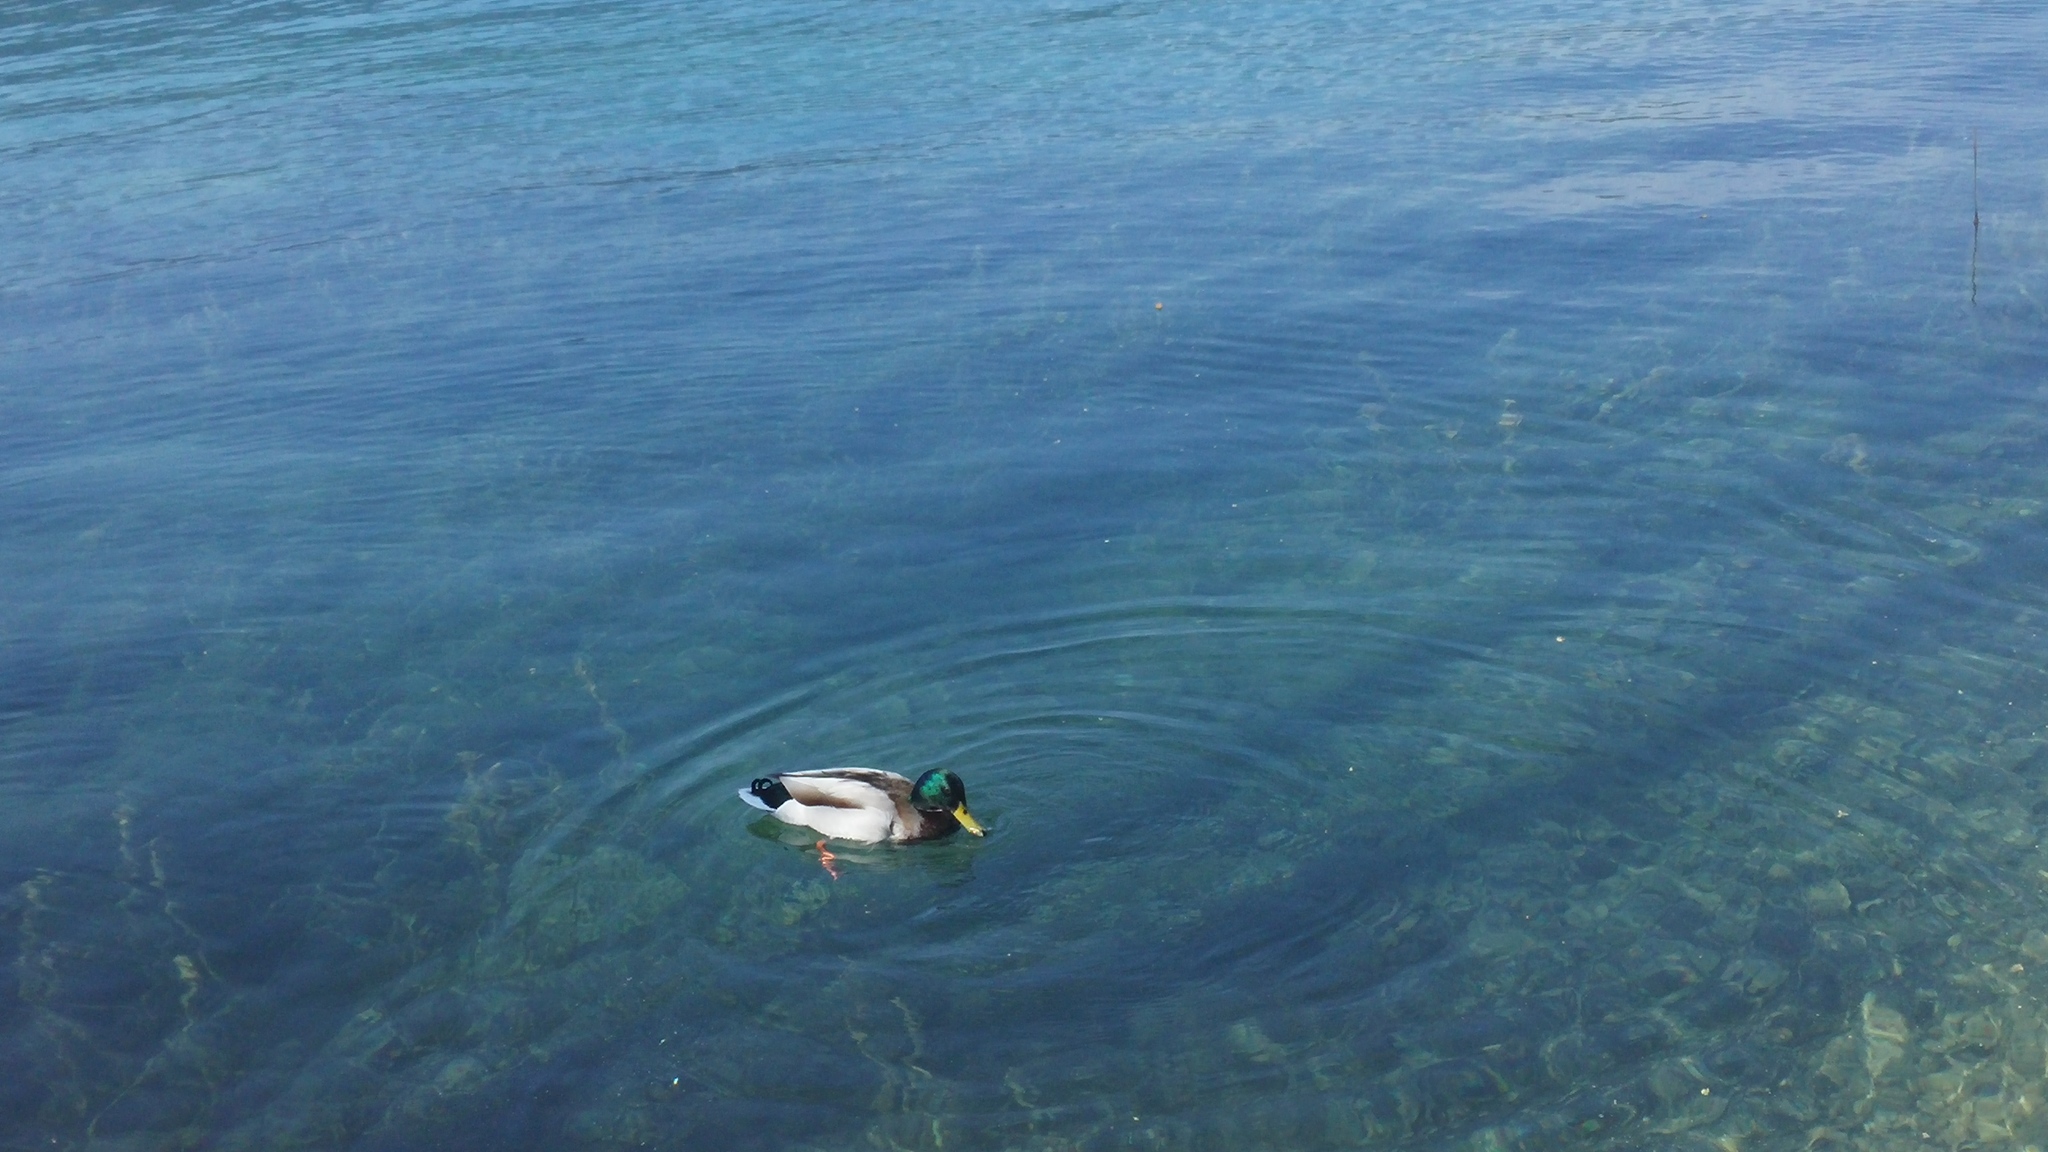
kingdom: Animalia
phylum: Chordata
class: Aves
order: Anseriformes
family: Anatidae
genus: Anas
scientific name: Anas platyrhynchos
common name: Mallard
